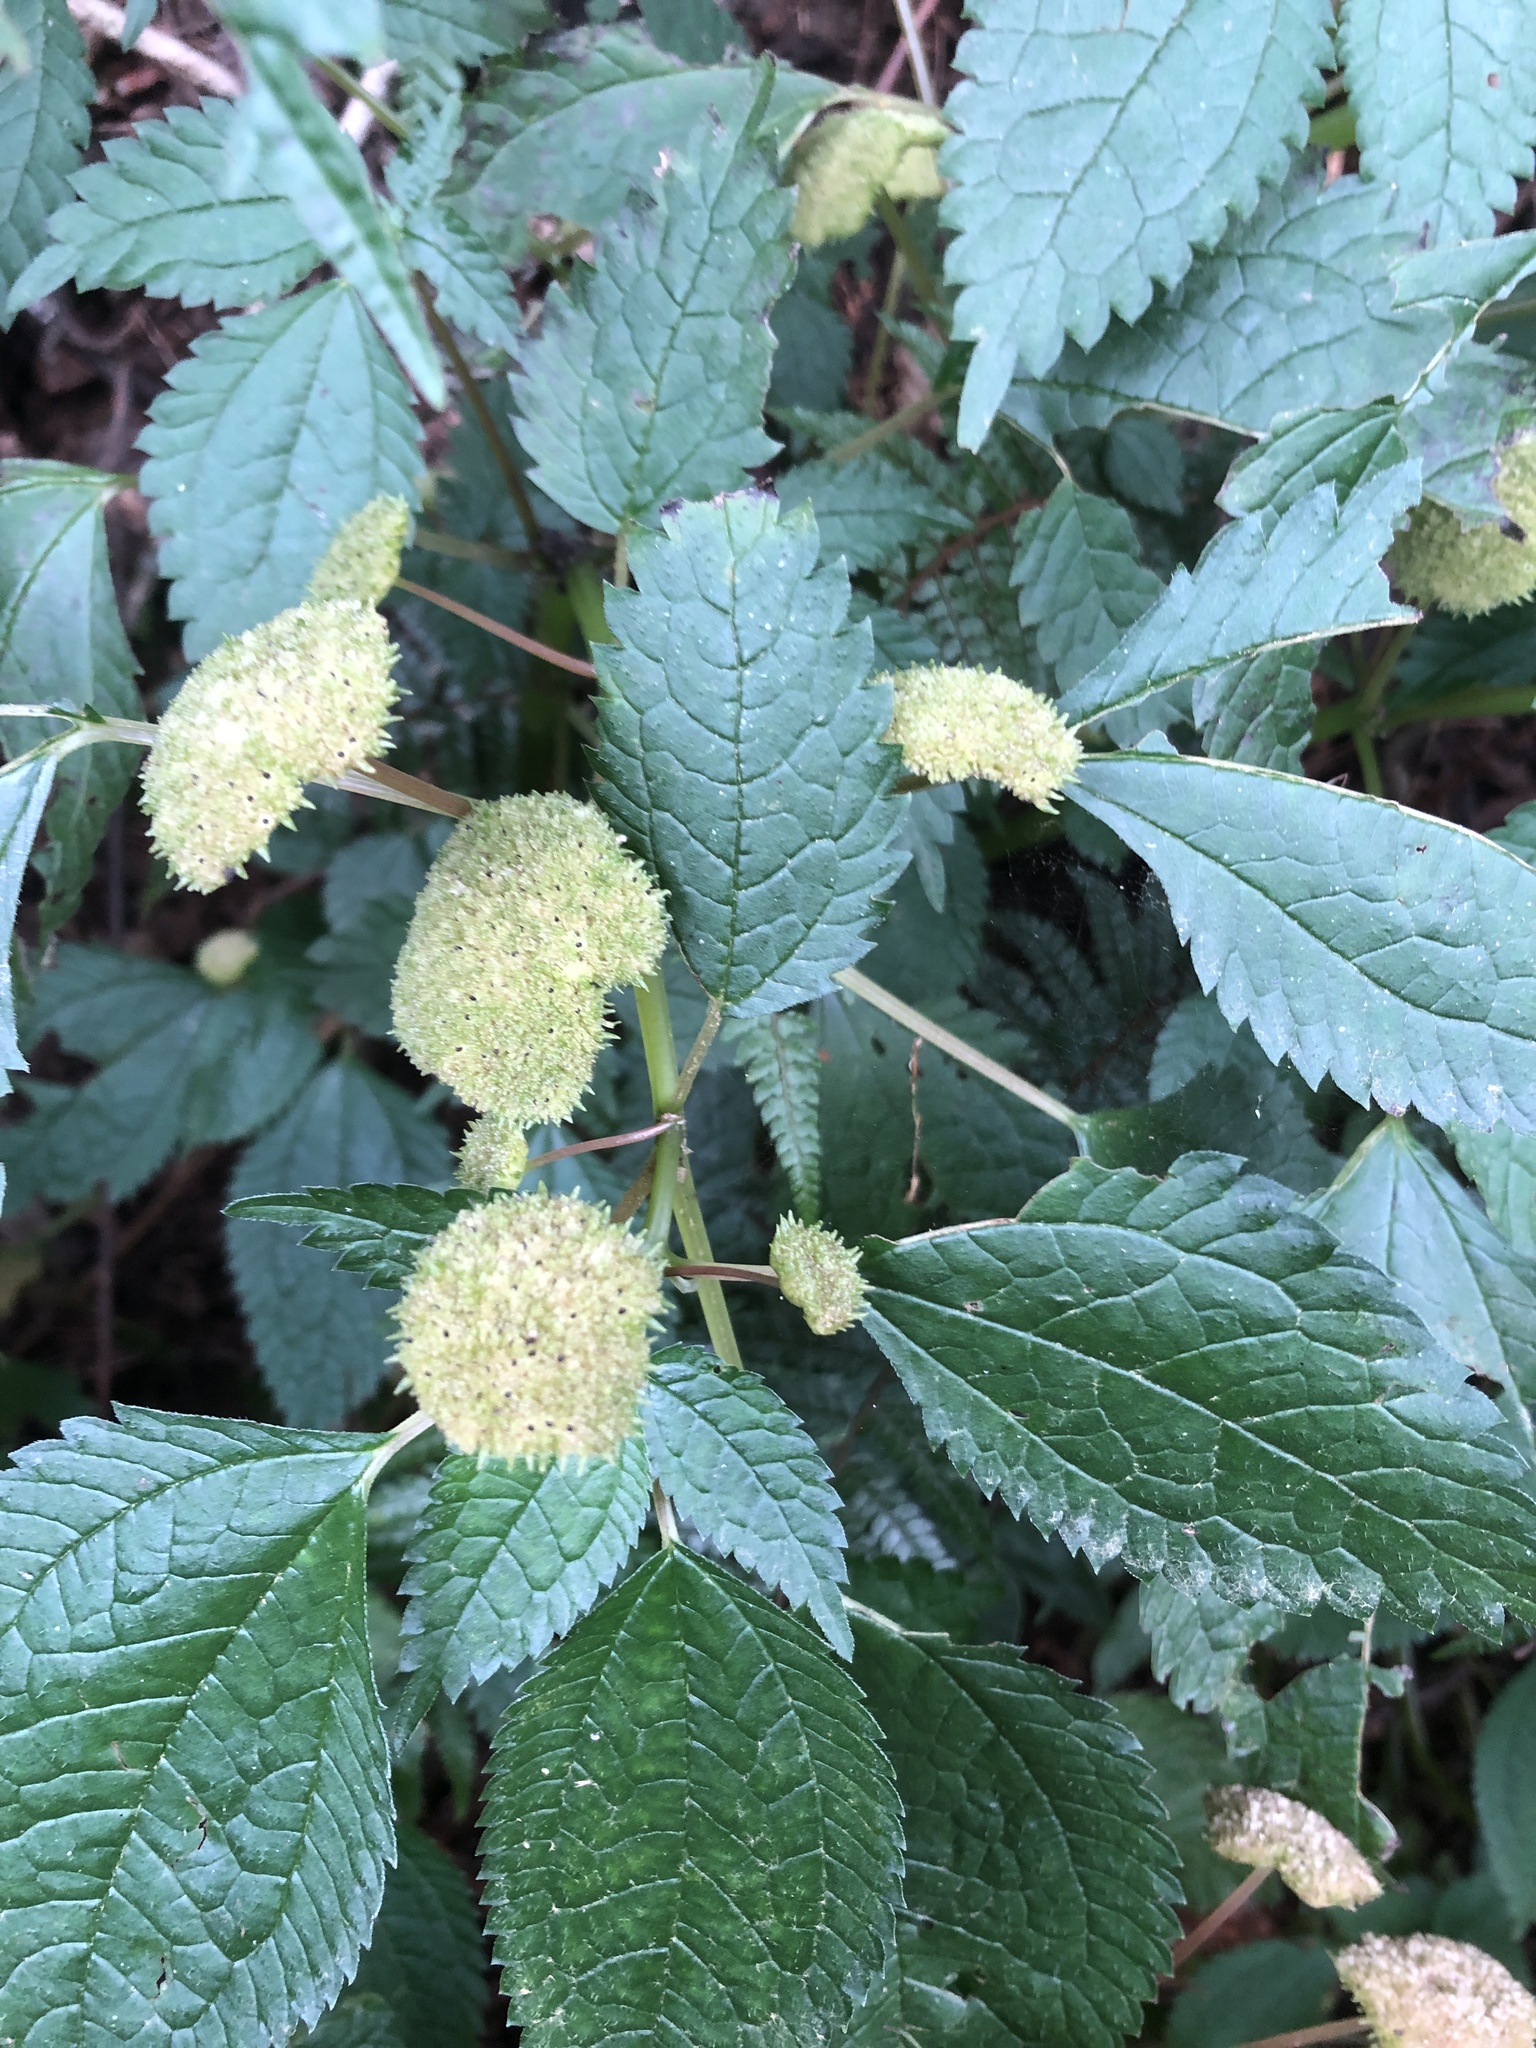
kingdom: Plantae
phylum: Tracheophyta
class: Magnoliopsida
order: Rosales
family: Urticaceae
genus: Lecanthus
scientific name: Lecanthus peduncularis
